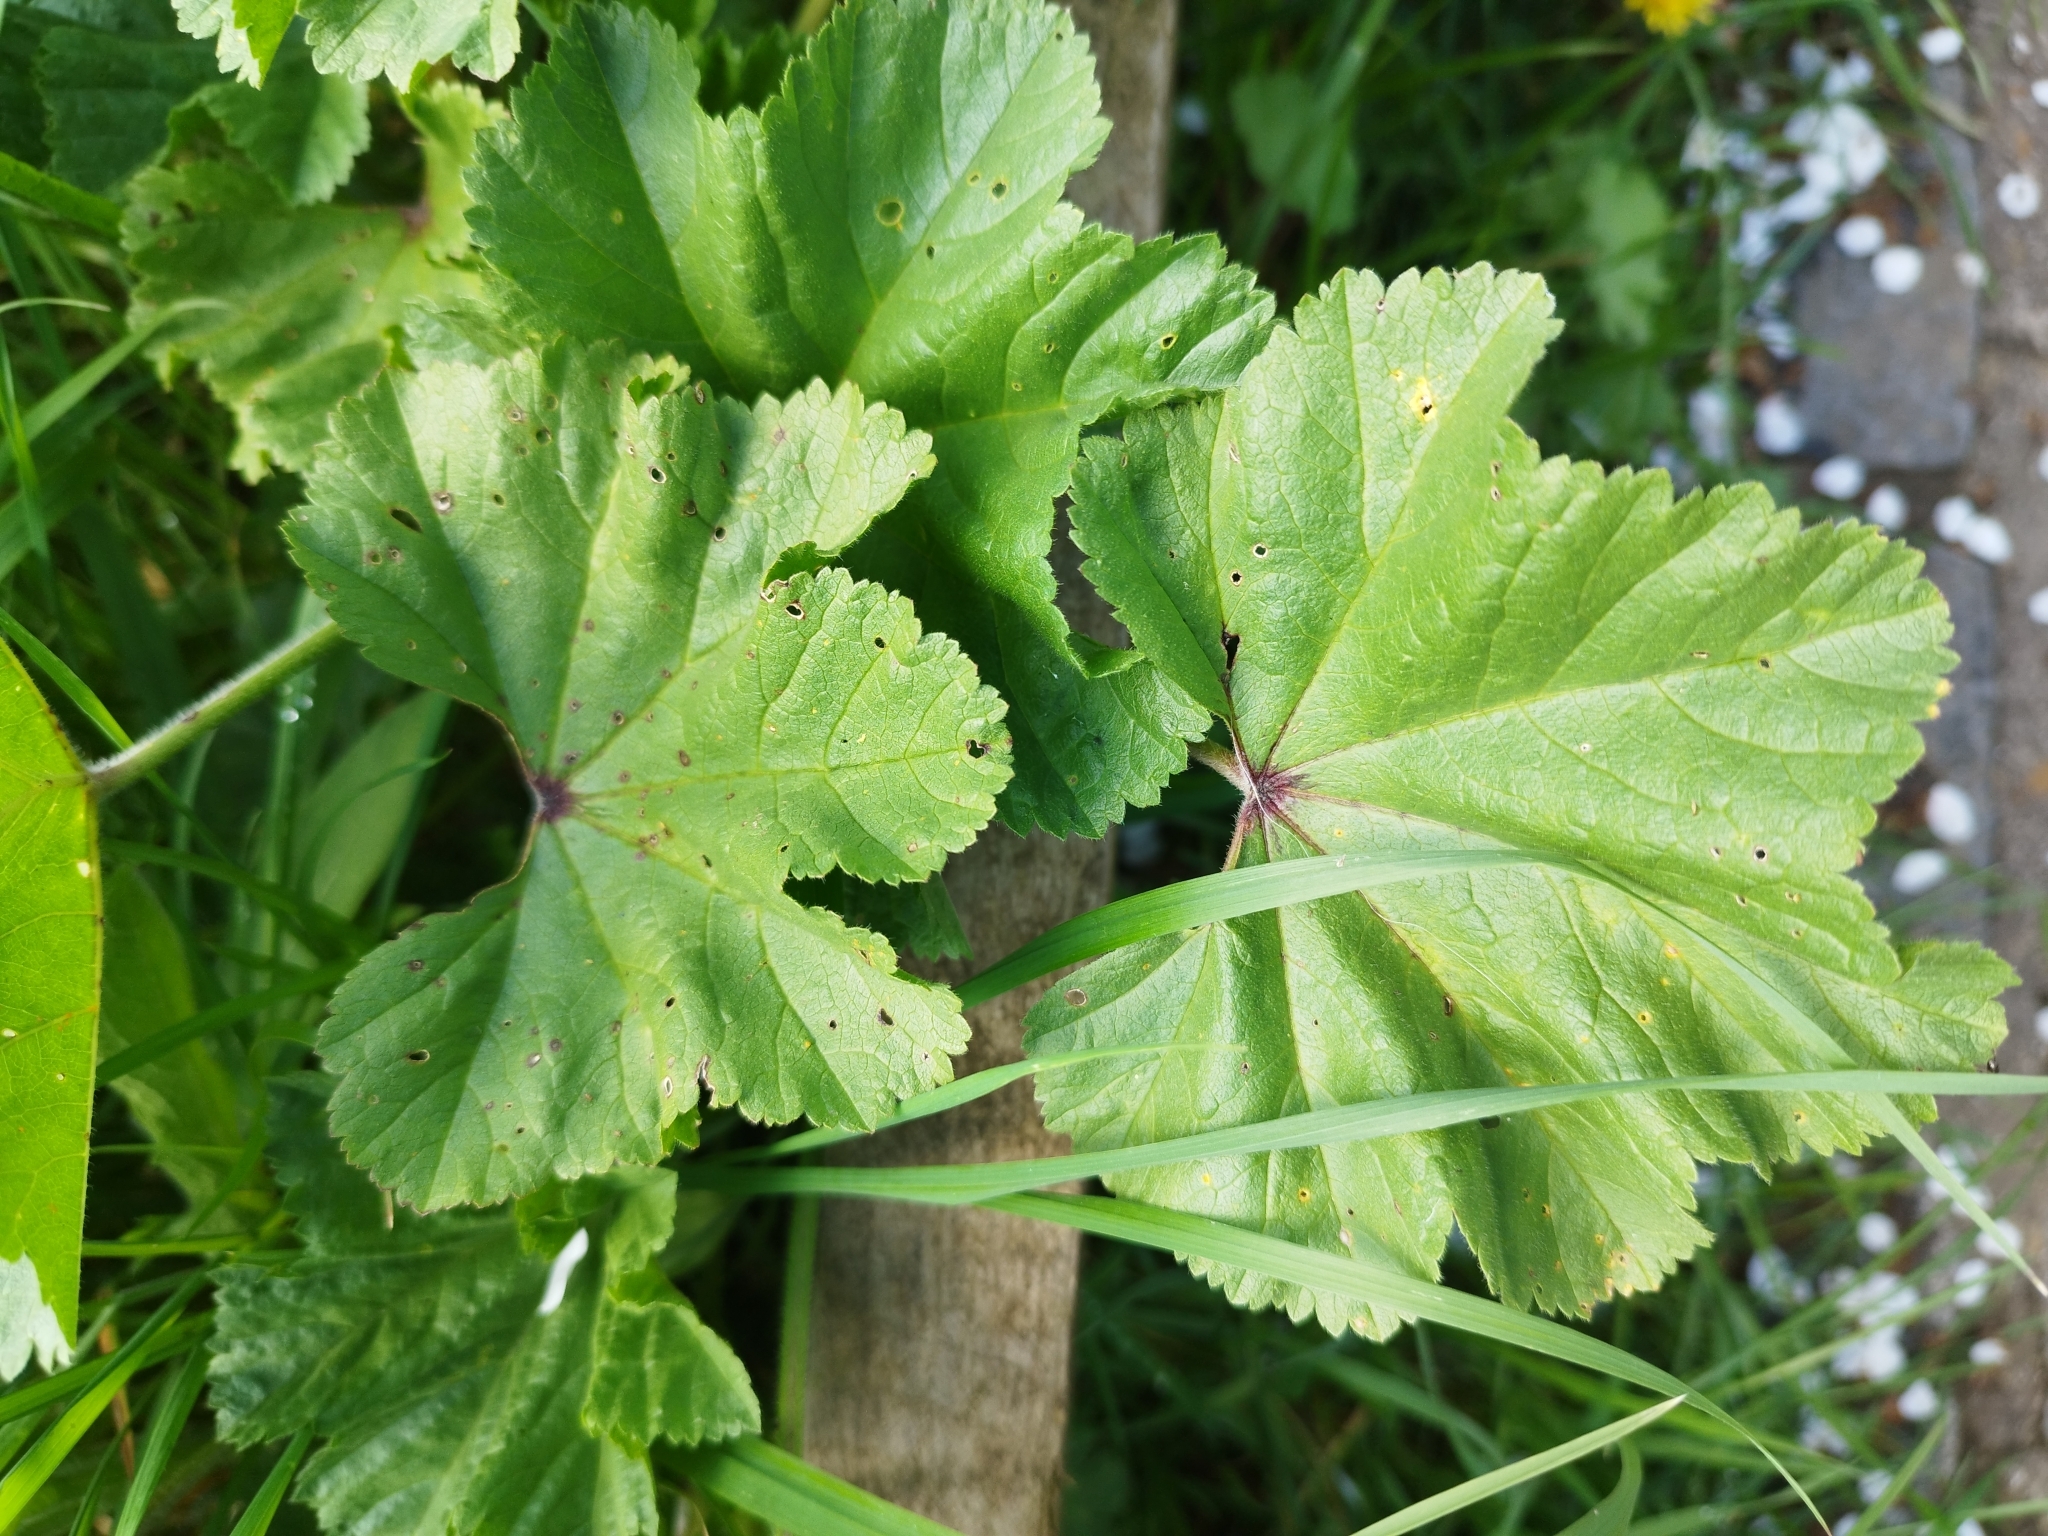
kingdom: Plantae
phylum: Tracheophyta
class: Magnoliopsida
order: Malvales
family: Malvaceae
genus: Malva
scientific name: Malva sylvestris
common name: Common mallow
